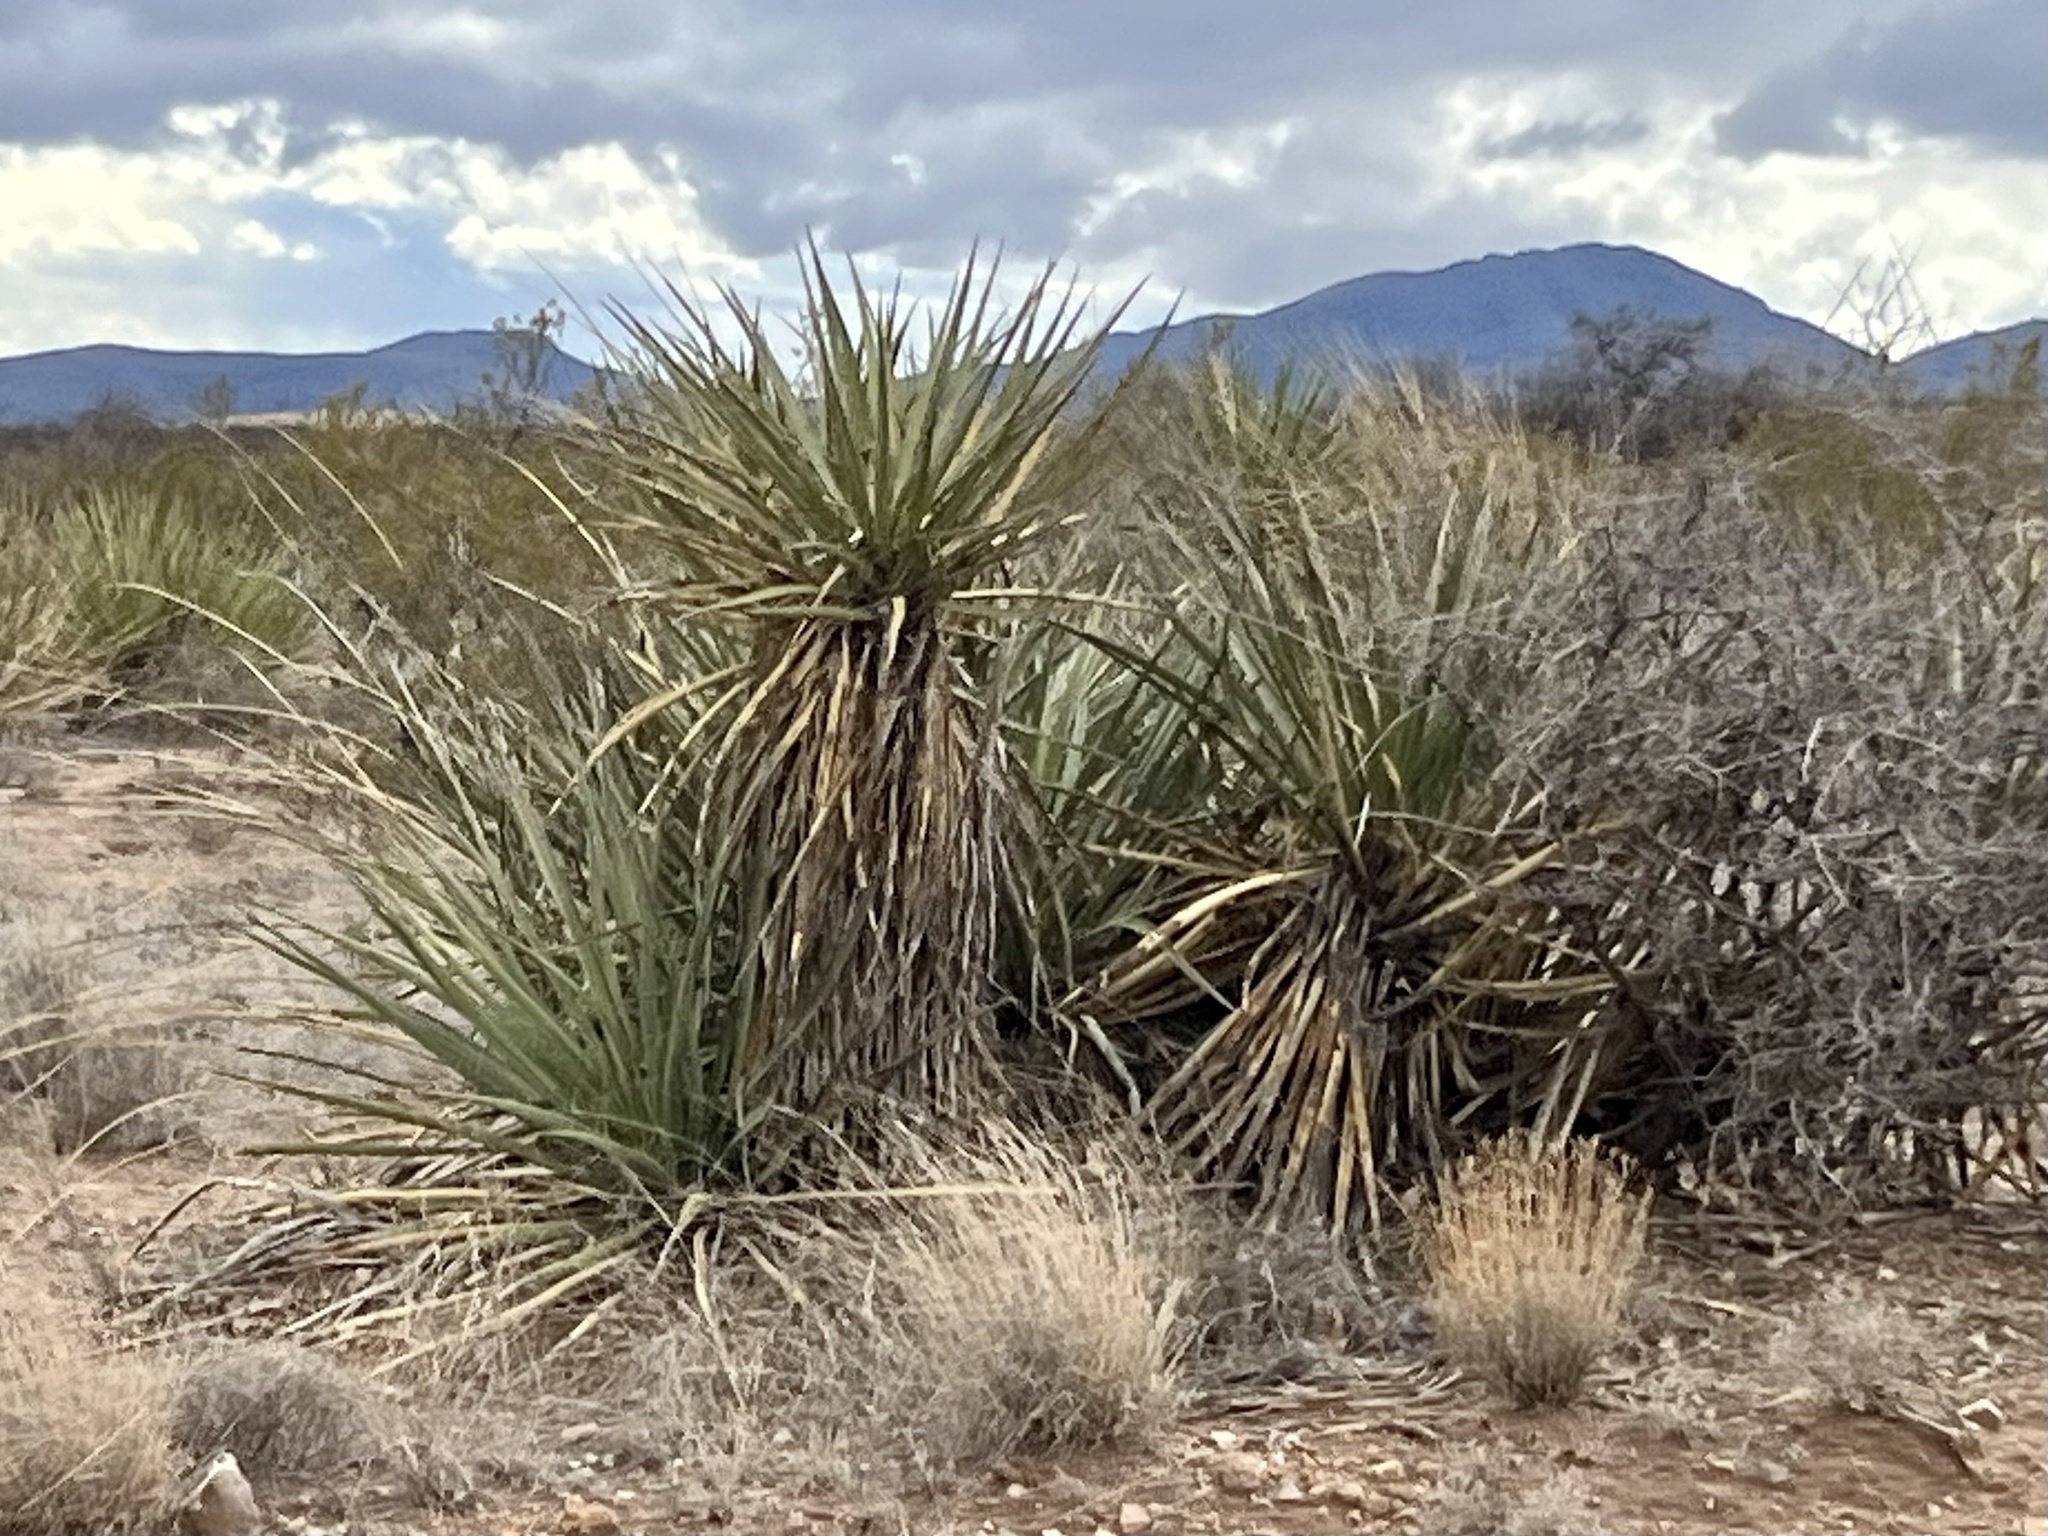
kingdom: Plantae
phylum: Tracheophyta
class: Liliopsida
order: Asparagales
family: Asparagaceae
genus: Yucca
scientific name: Yucca baccata
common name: Banana yucca
